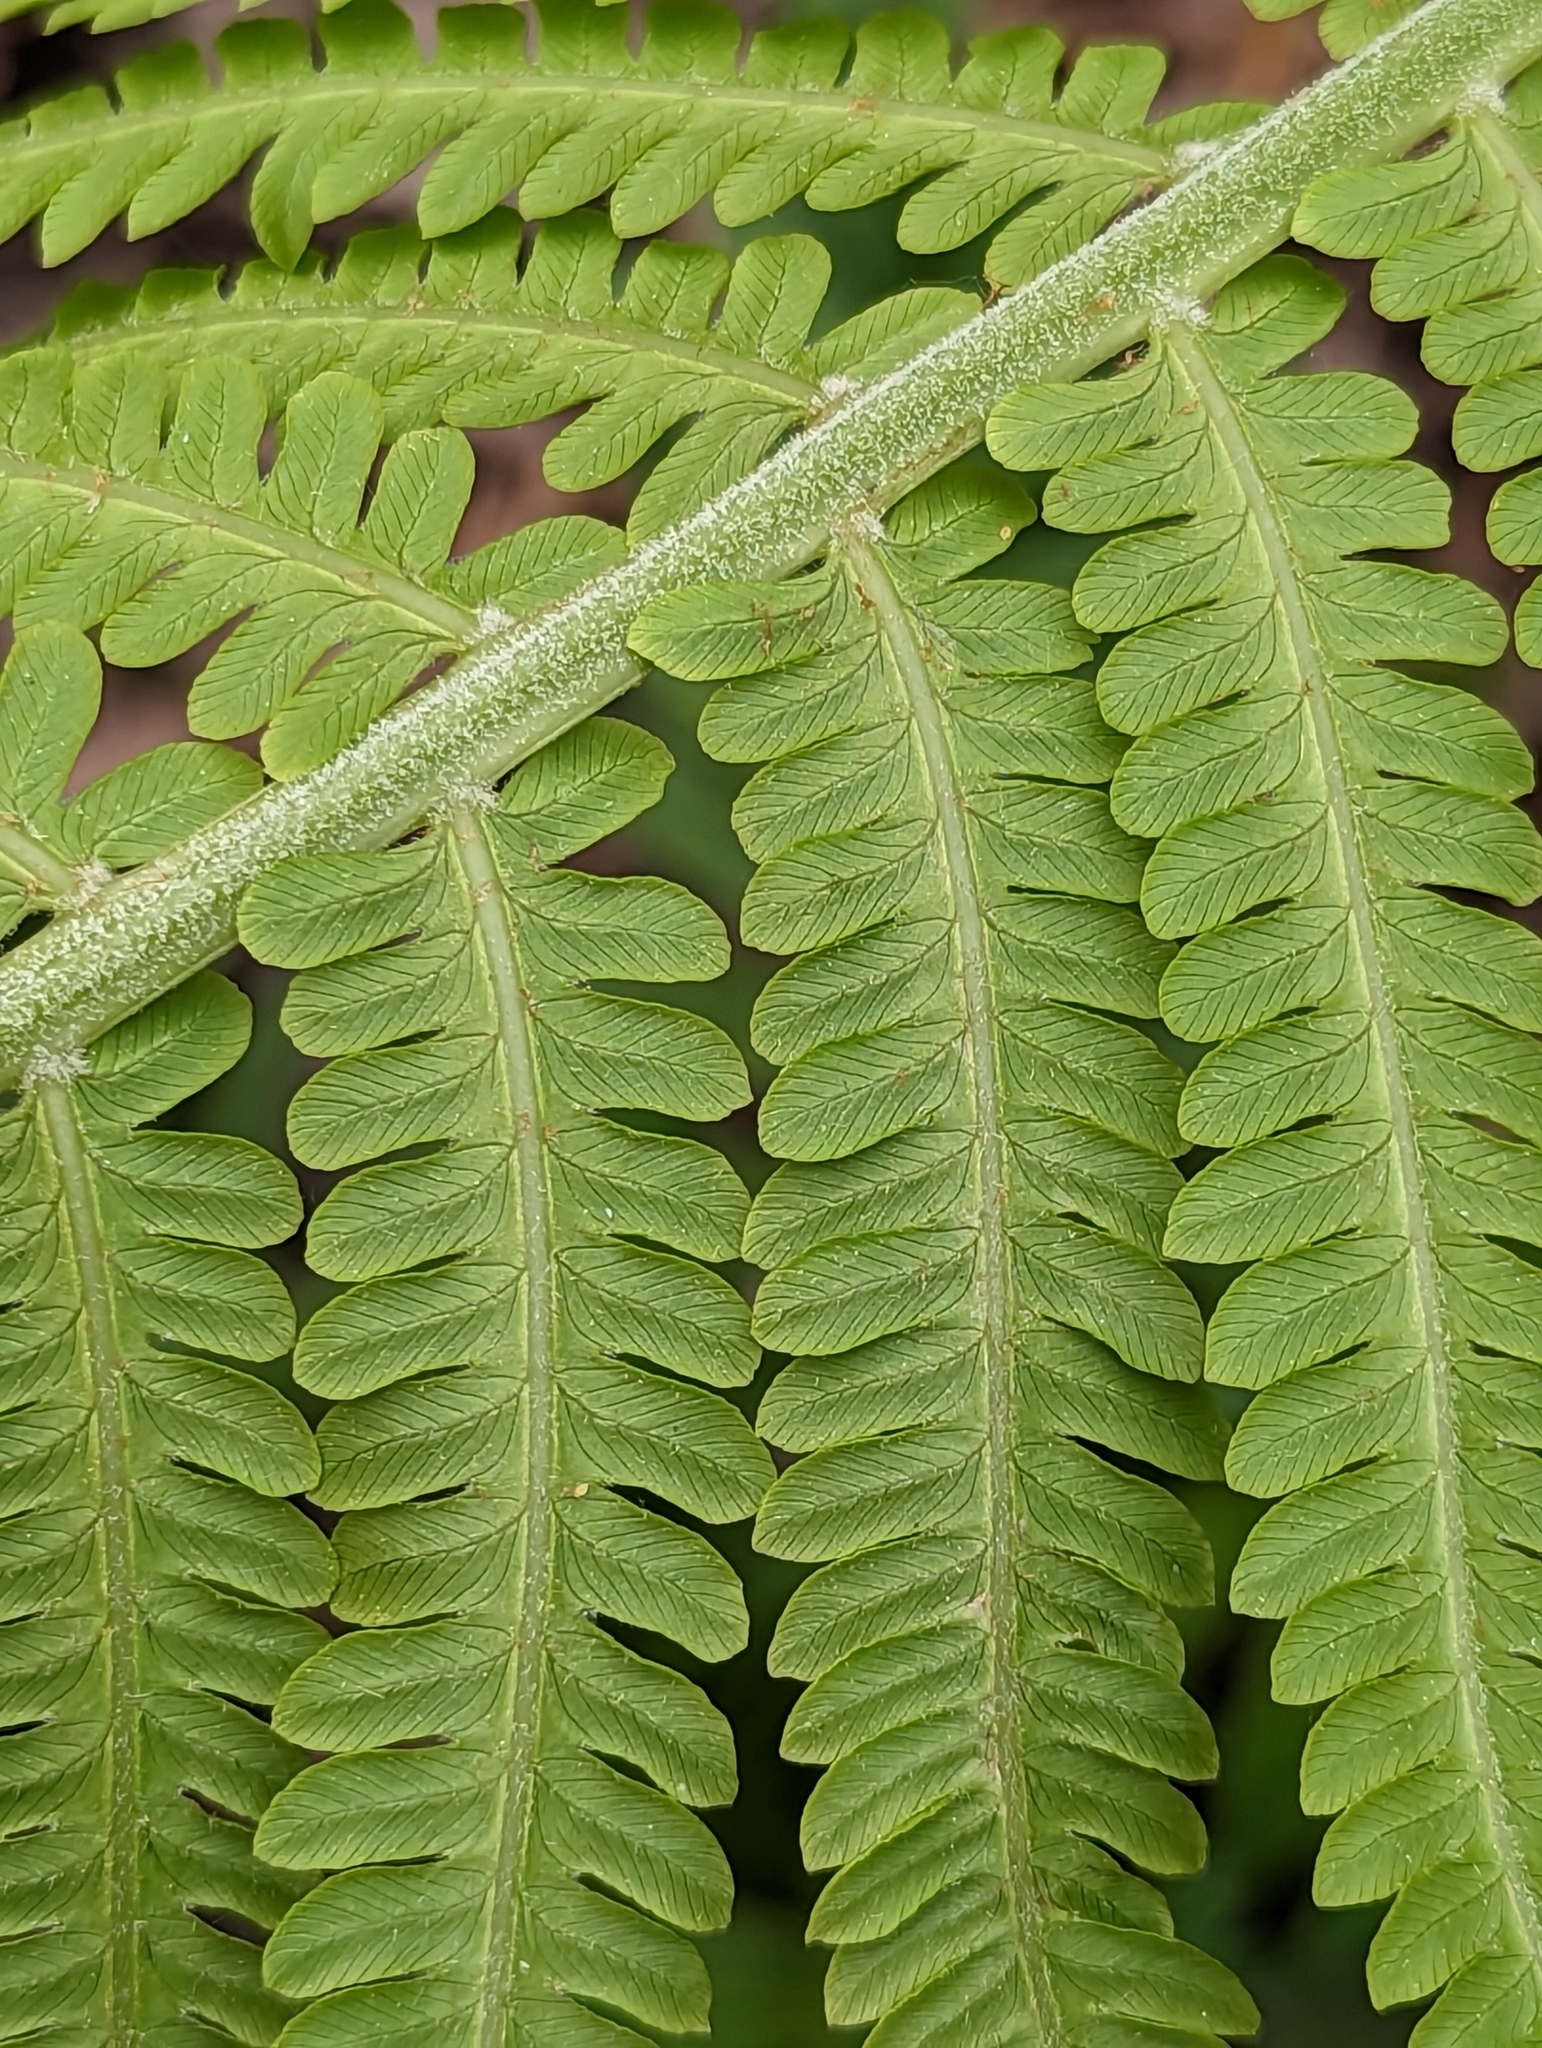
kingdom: Plantae
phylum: Tracheophyta
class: Polypodiopsida
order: Polypodiales
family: Onocleaceae
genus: Matteuccia
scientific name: Matteuccia struthiopteris
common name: Ostrich fern
